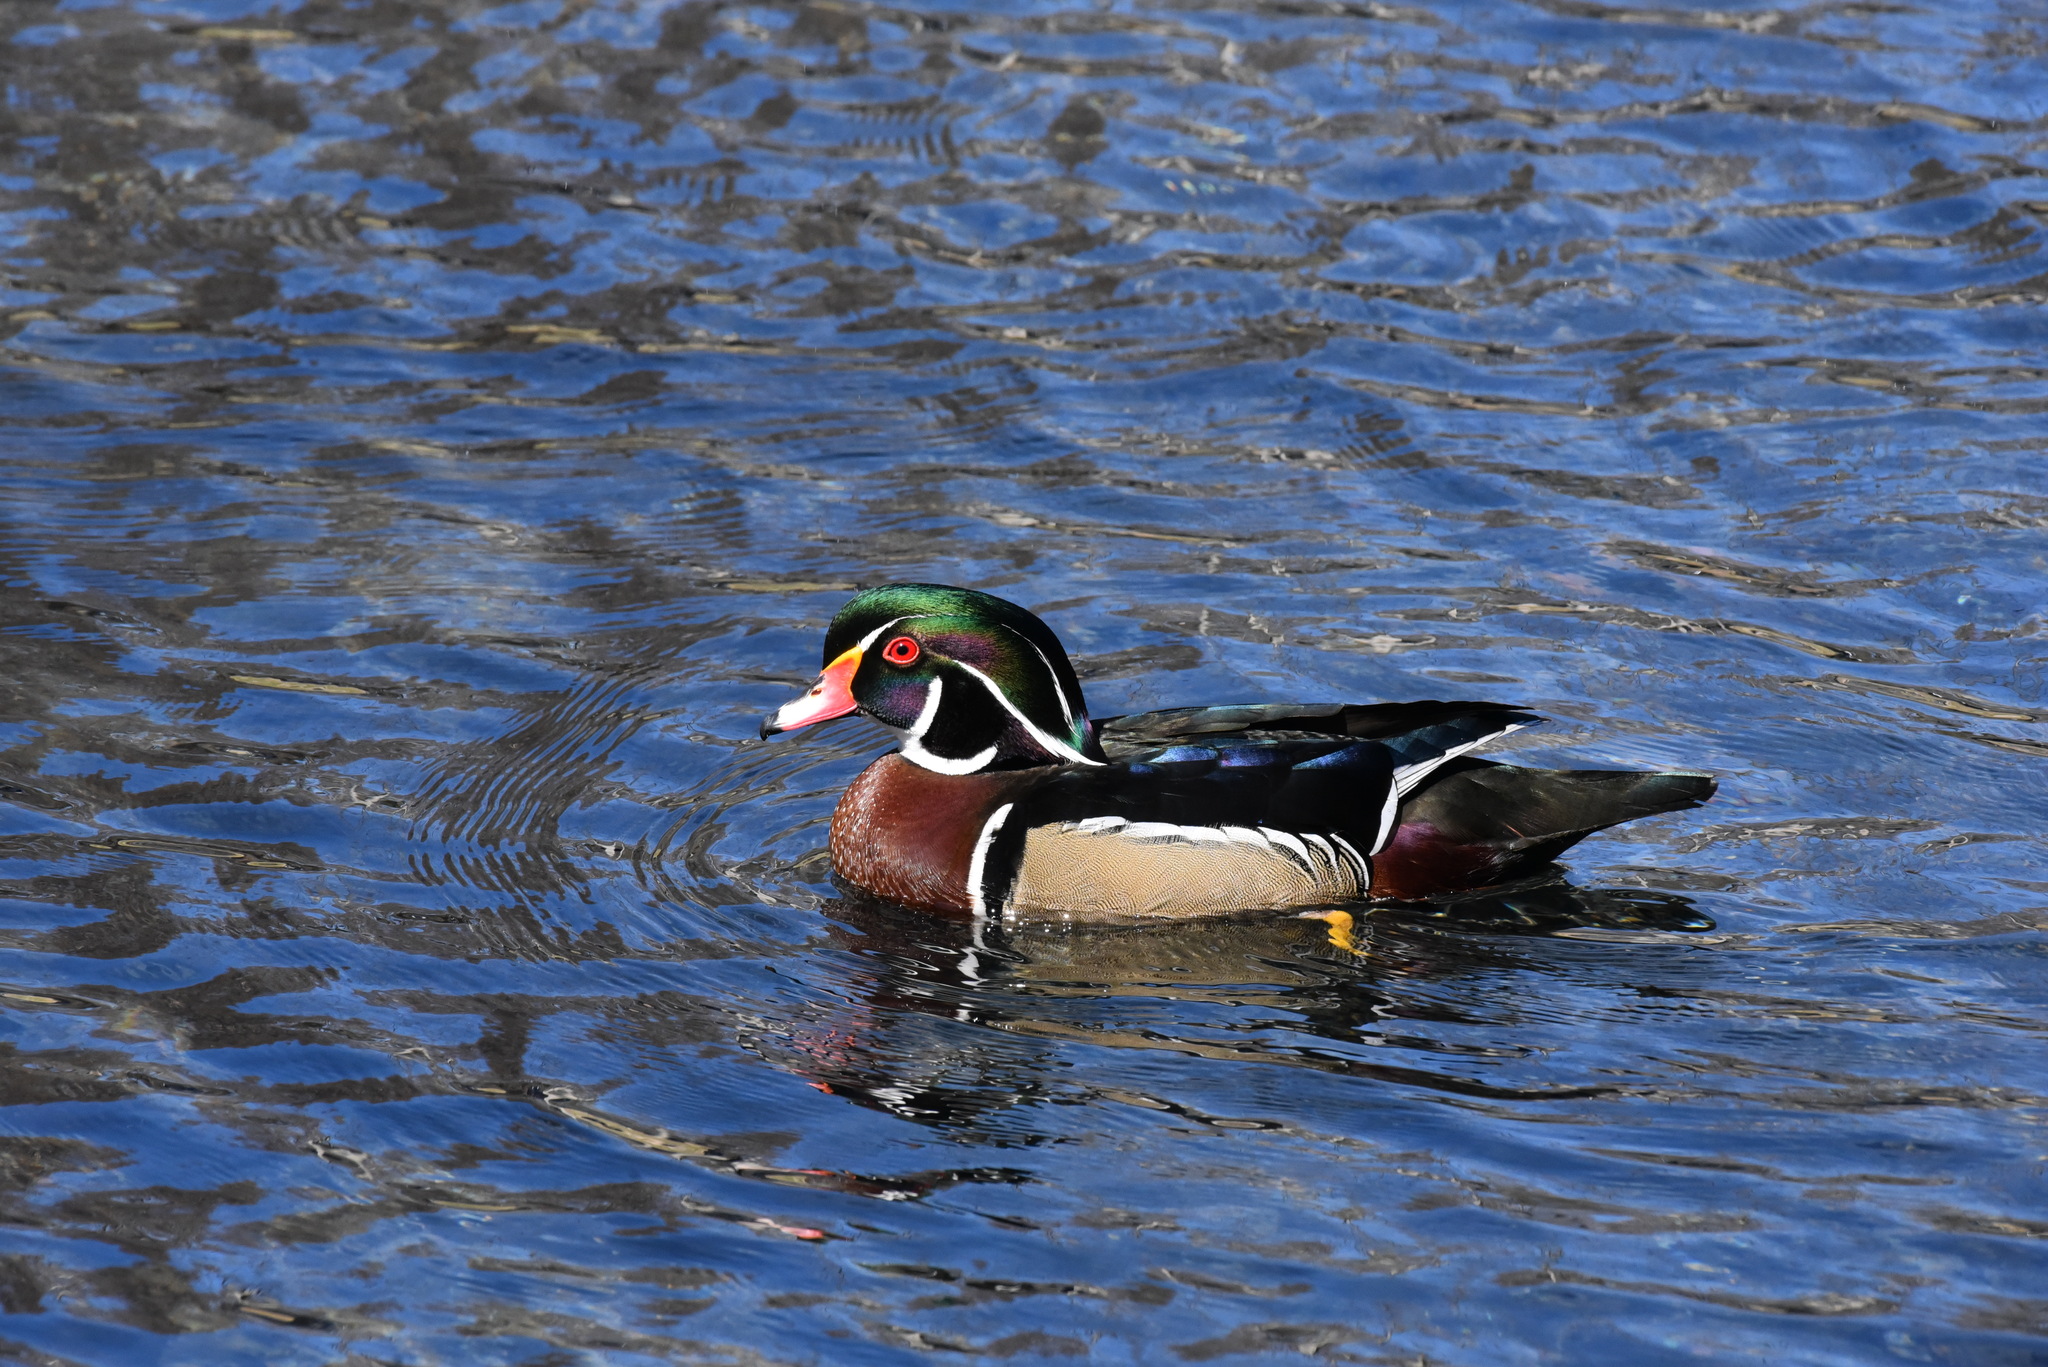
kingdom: Animalia
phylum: Chordata
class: Aves
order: Anseriformes
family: Anatidae
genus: Aix
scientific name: Aix sponsa
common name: Wood duck
